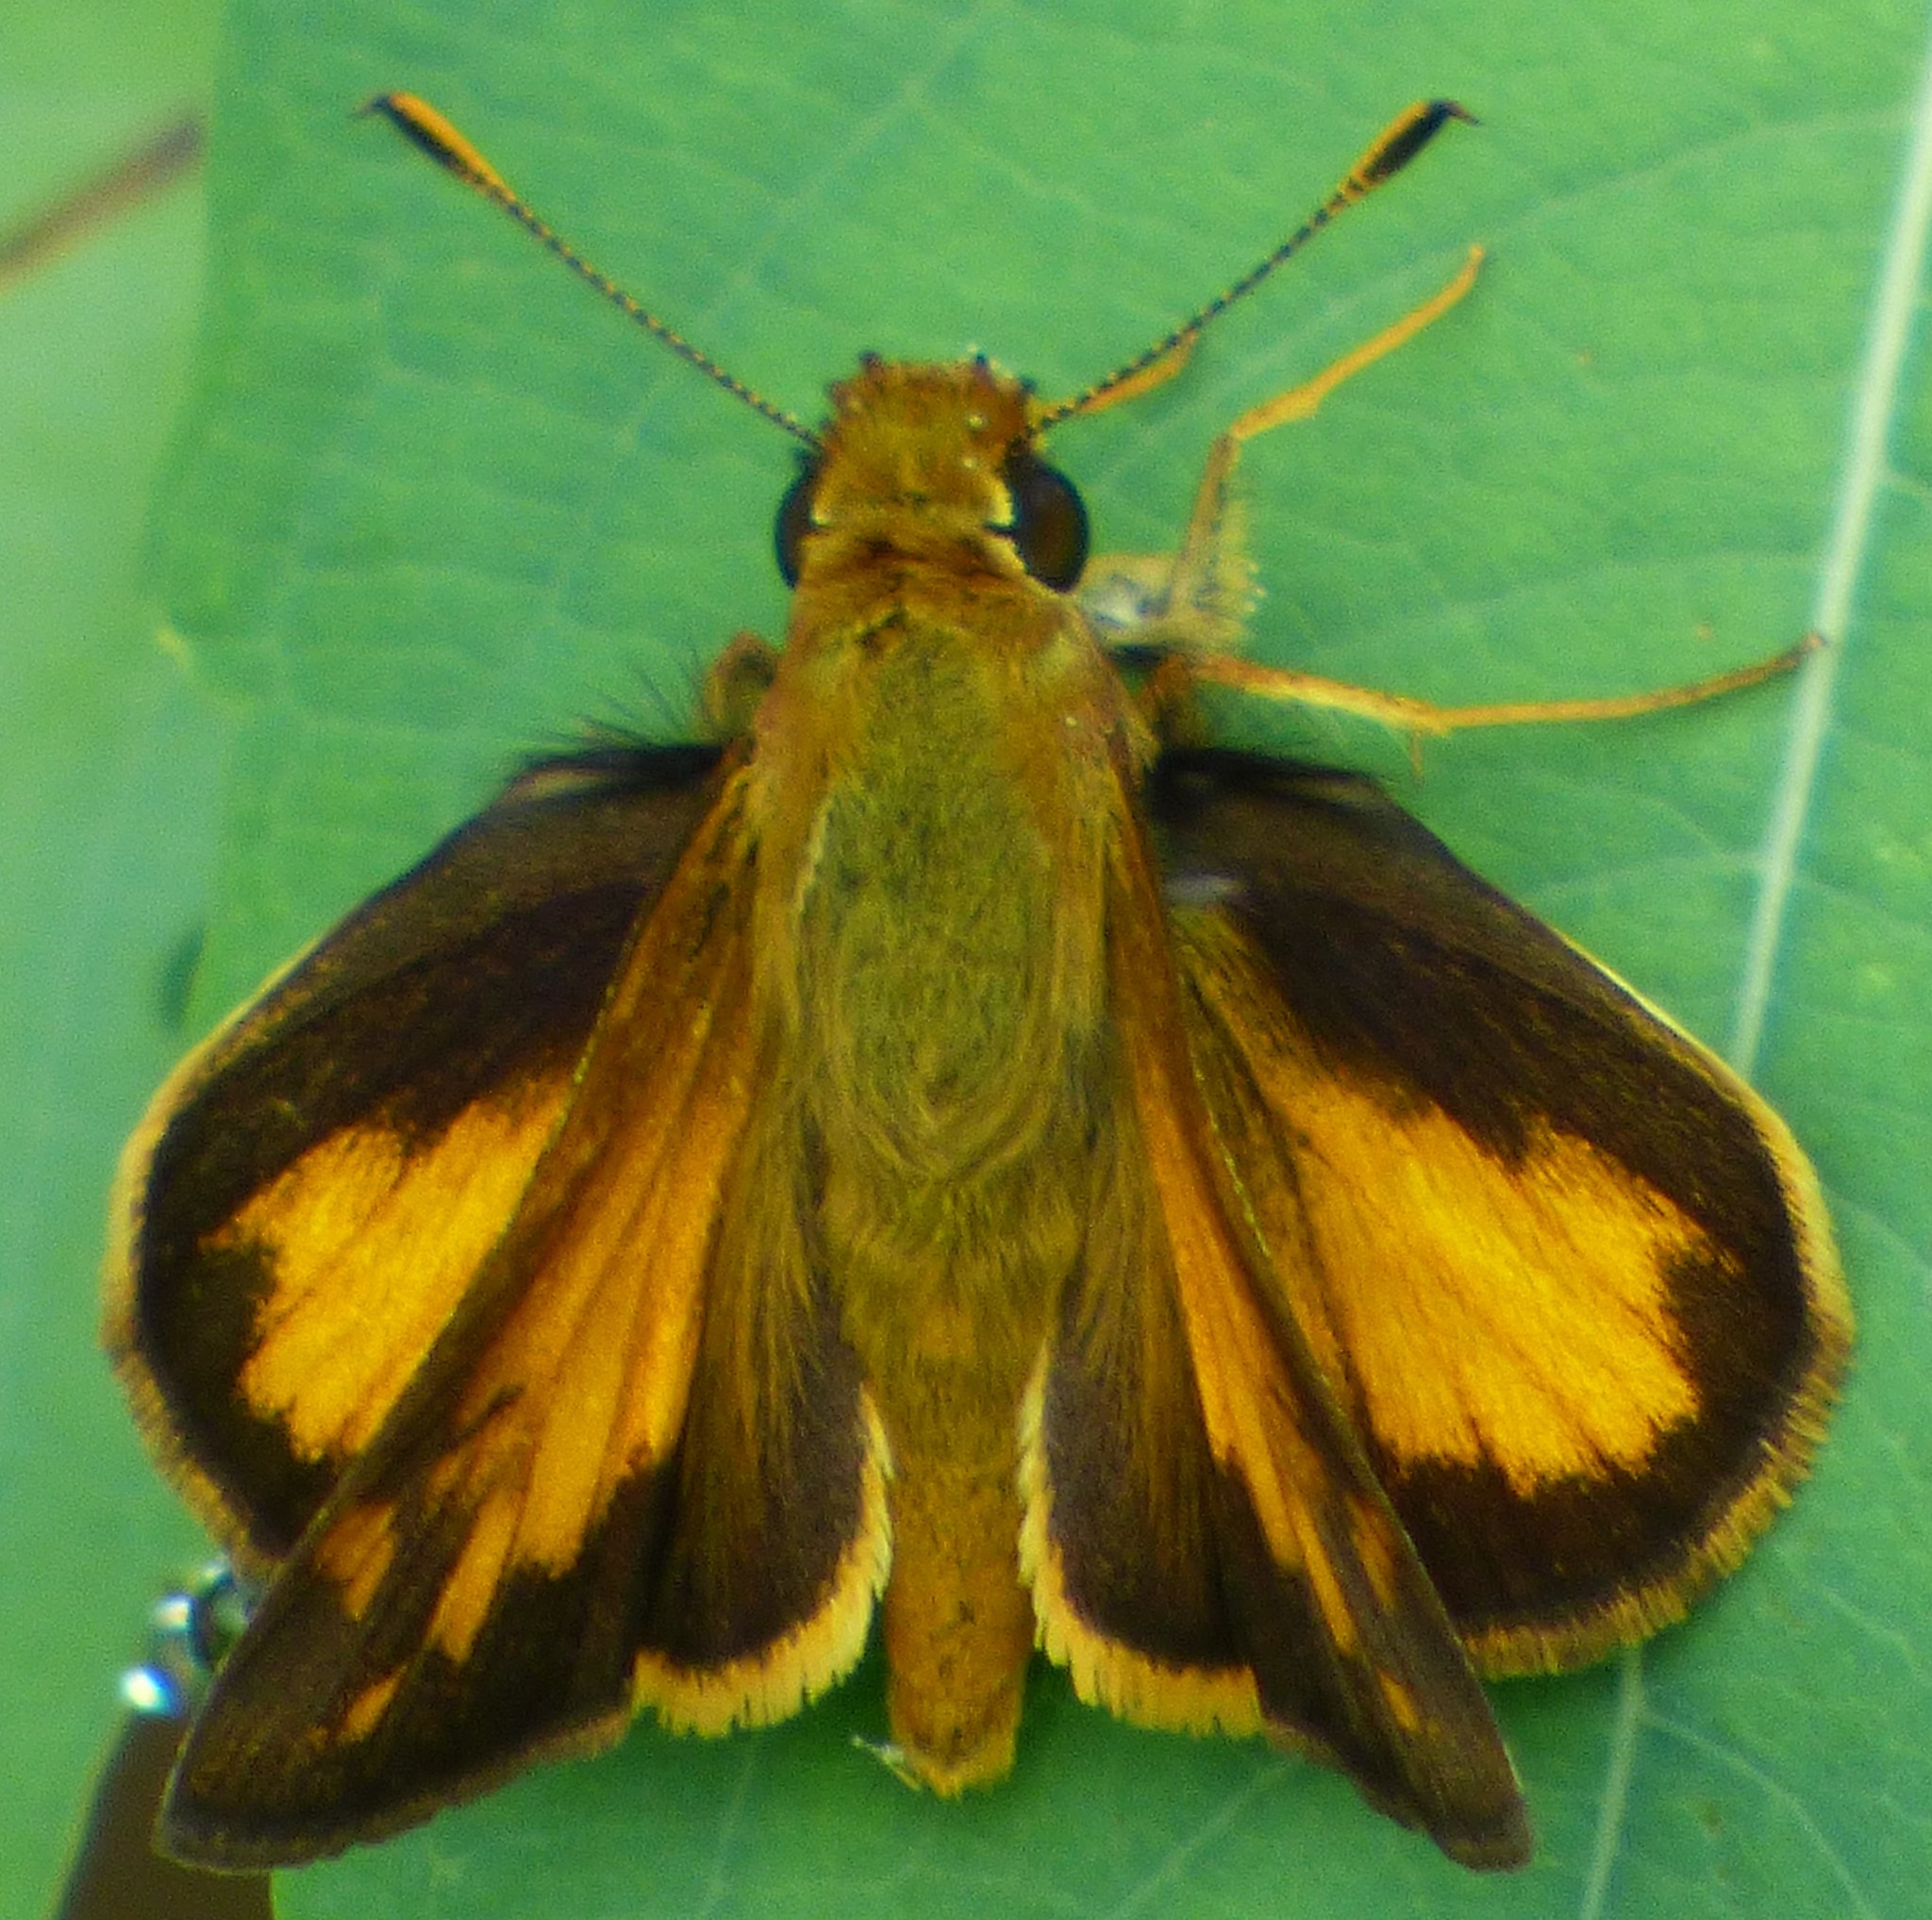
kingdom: Animalia
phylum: Arthropoda
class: Insecta
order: Lepidoptera
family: Hesperiidae
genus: Lon
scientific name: Lon zabulon
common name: Zabulon skipper
